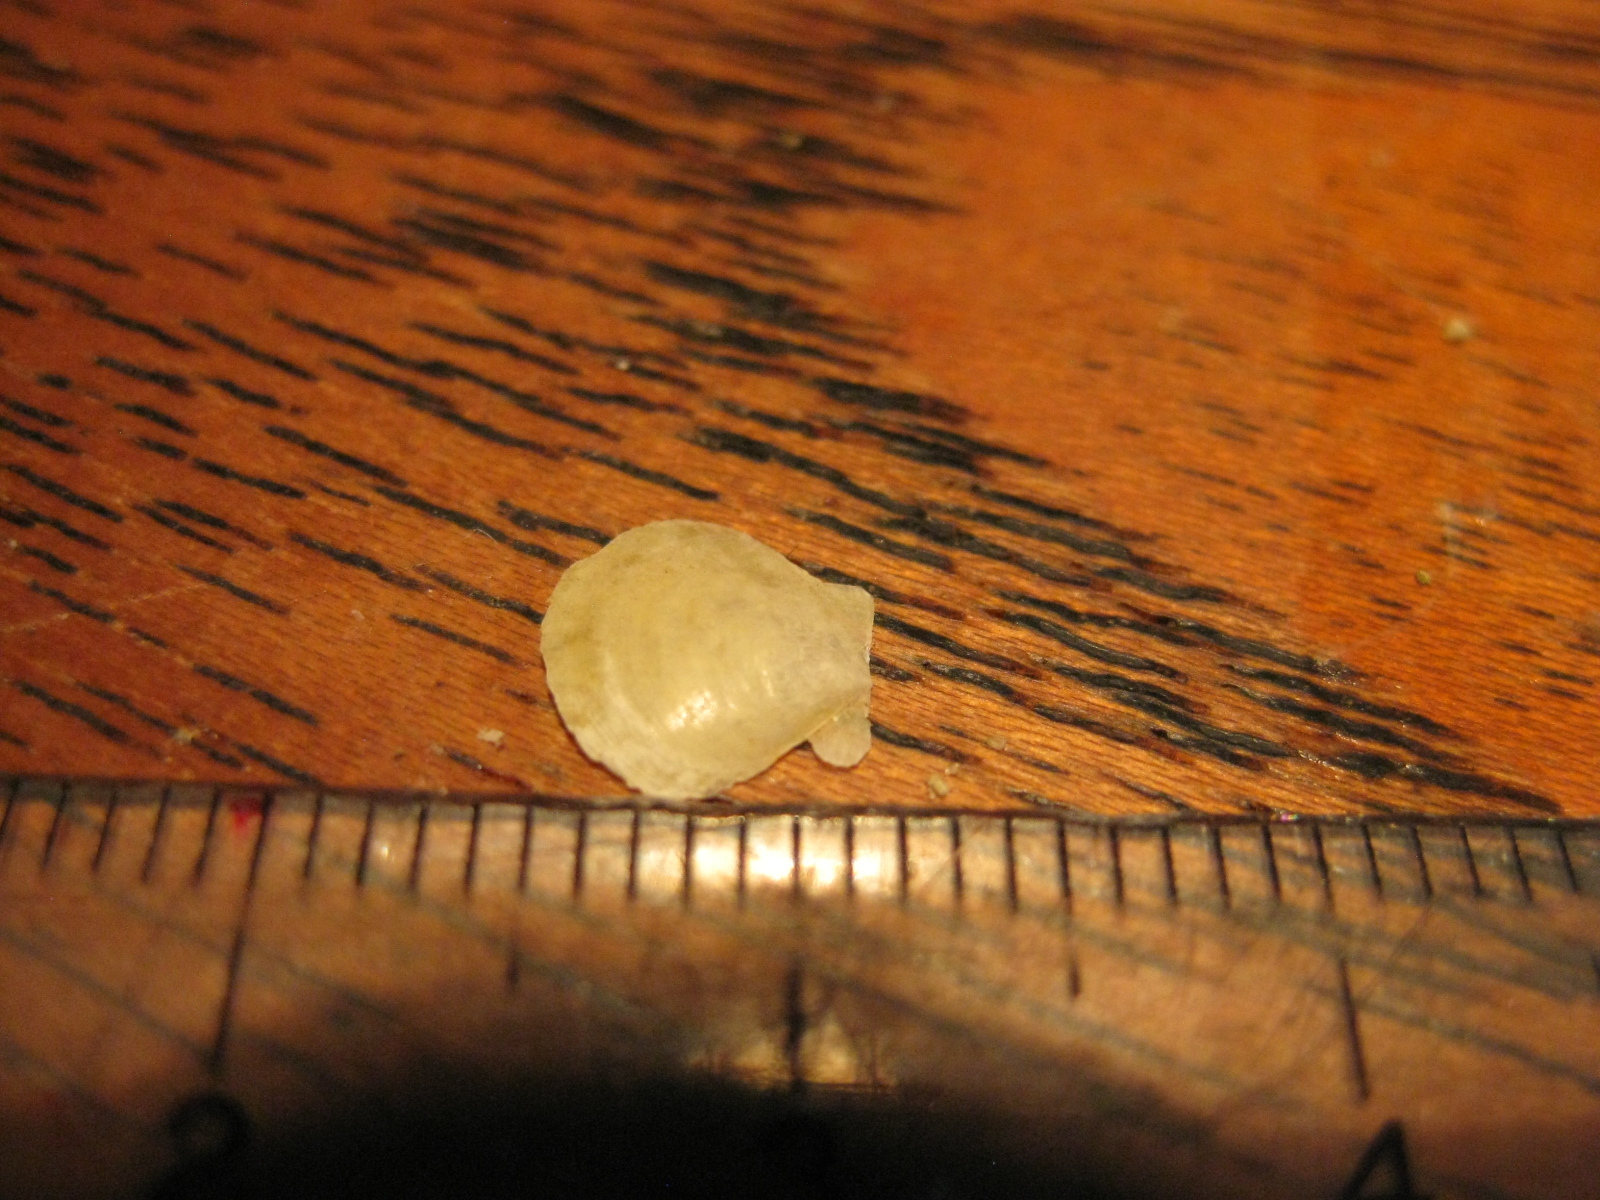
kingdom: Animalia
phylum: Mollusca
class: Bivalvia
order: Pectinida
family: Pectinidae
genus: Pecten
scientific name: Pecten novaezelandiae
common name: New zealand scallop
